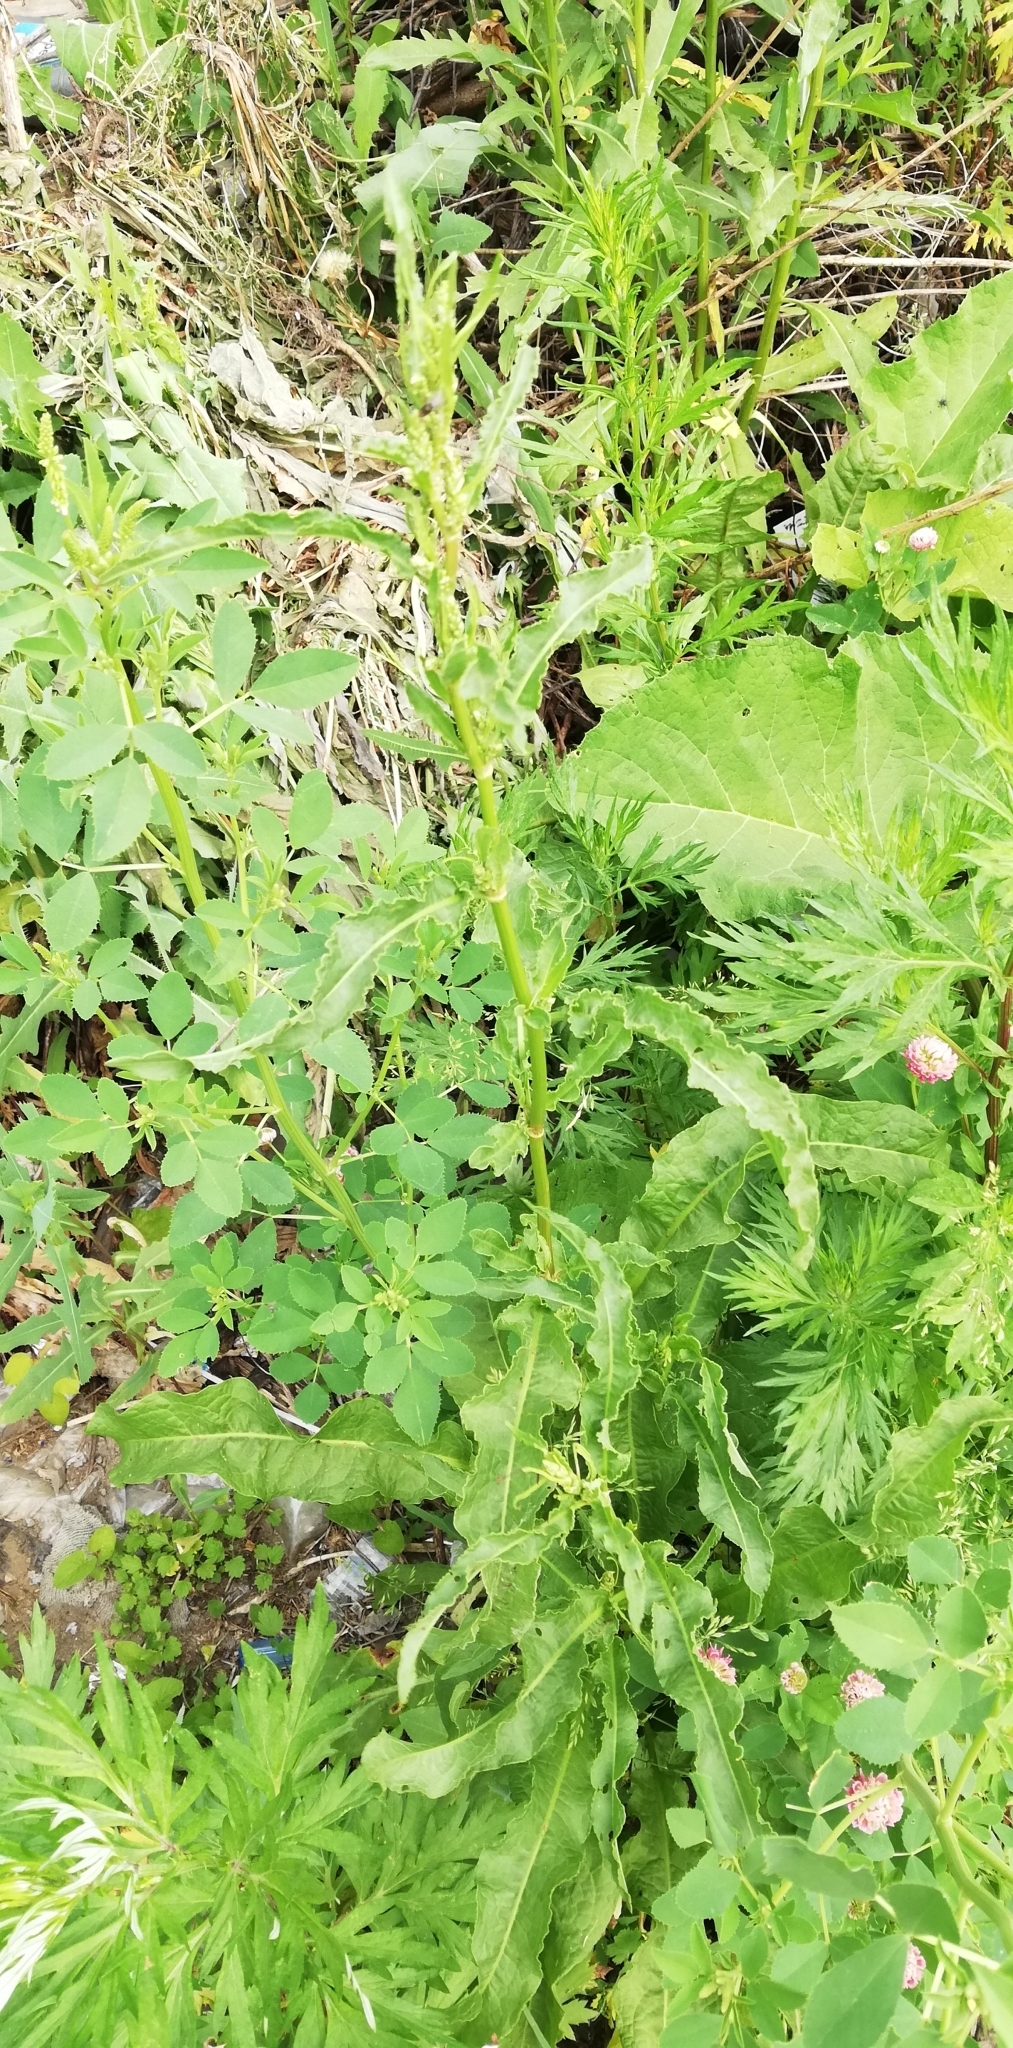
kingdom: Plantae
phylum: Tracheophyta
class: Magnoliopsida
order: Caryophyllales
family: Polygonaceae
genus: Rumex
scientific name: Rumex crispus
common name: Curled dock
